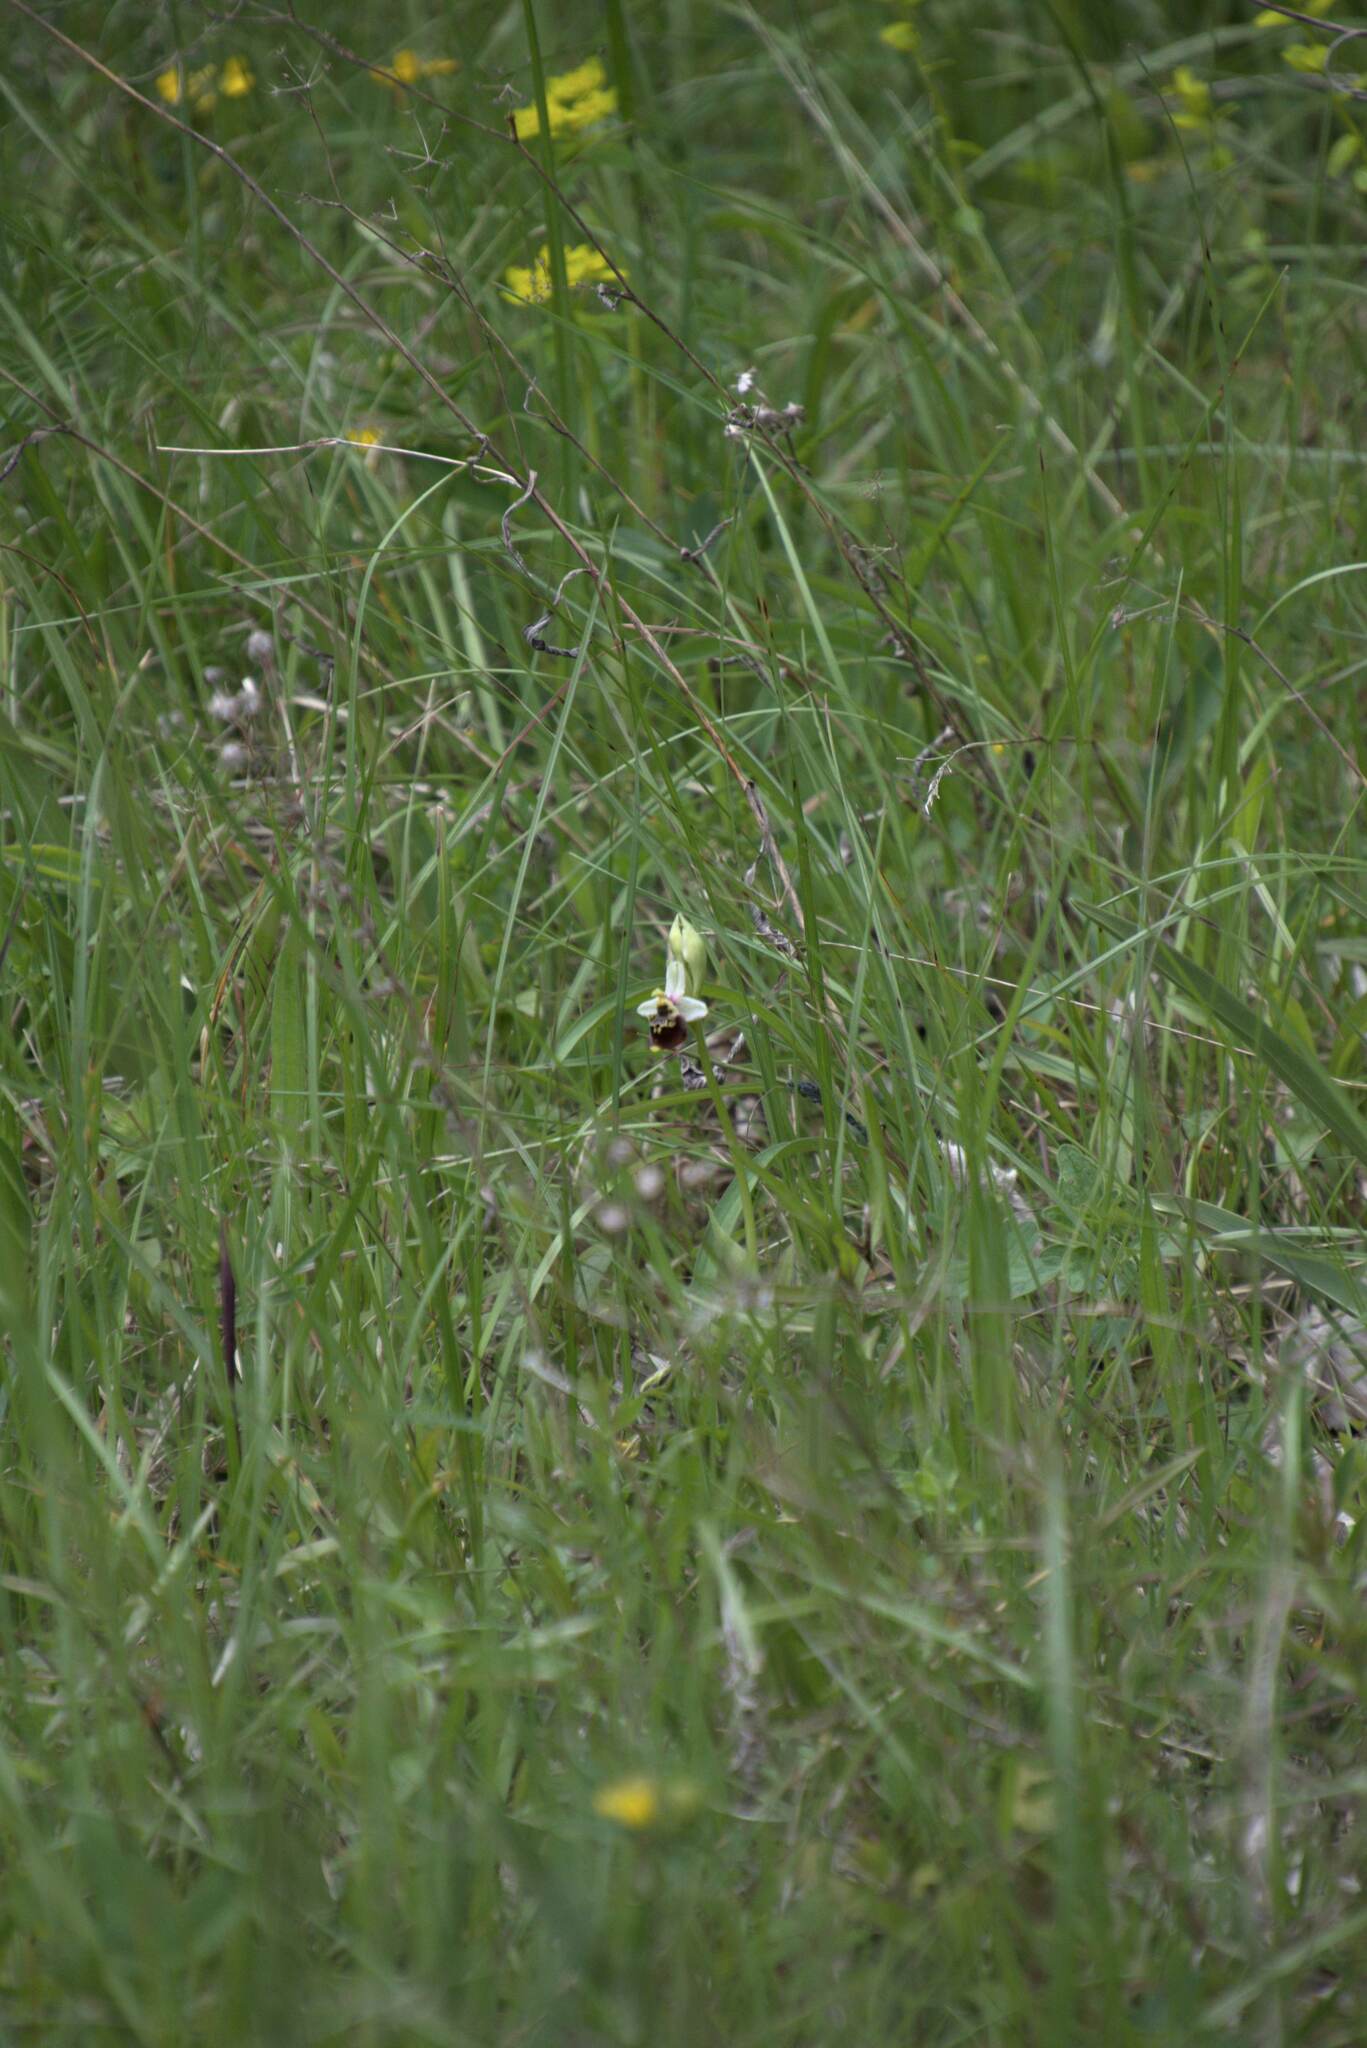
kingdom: Plantae
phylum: Tracheophyta
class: Liliopsida
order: Asparagales
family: Orchidaceae
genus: Ophrys
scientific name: Ophrys holosericea
